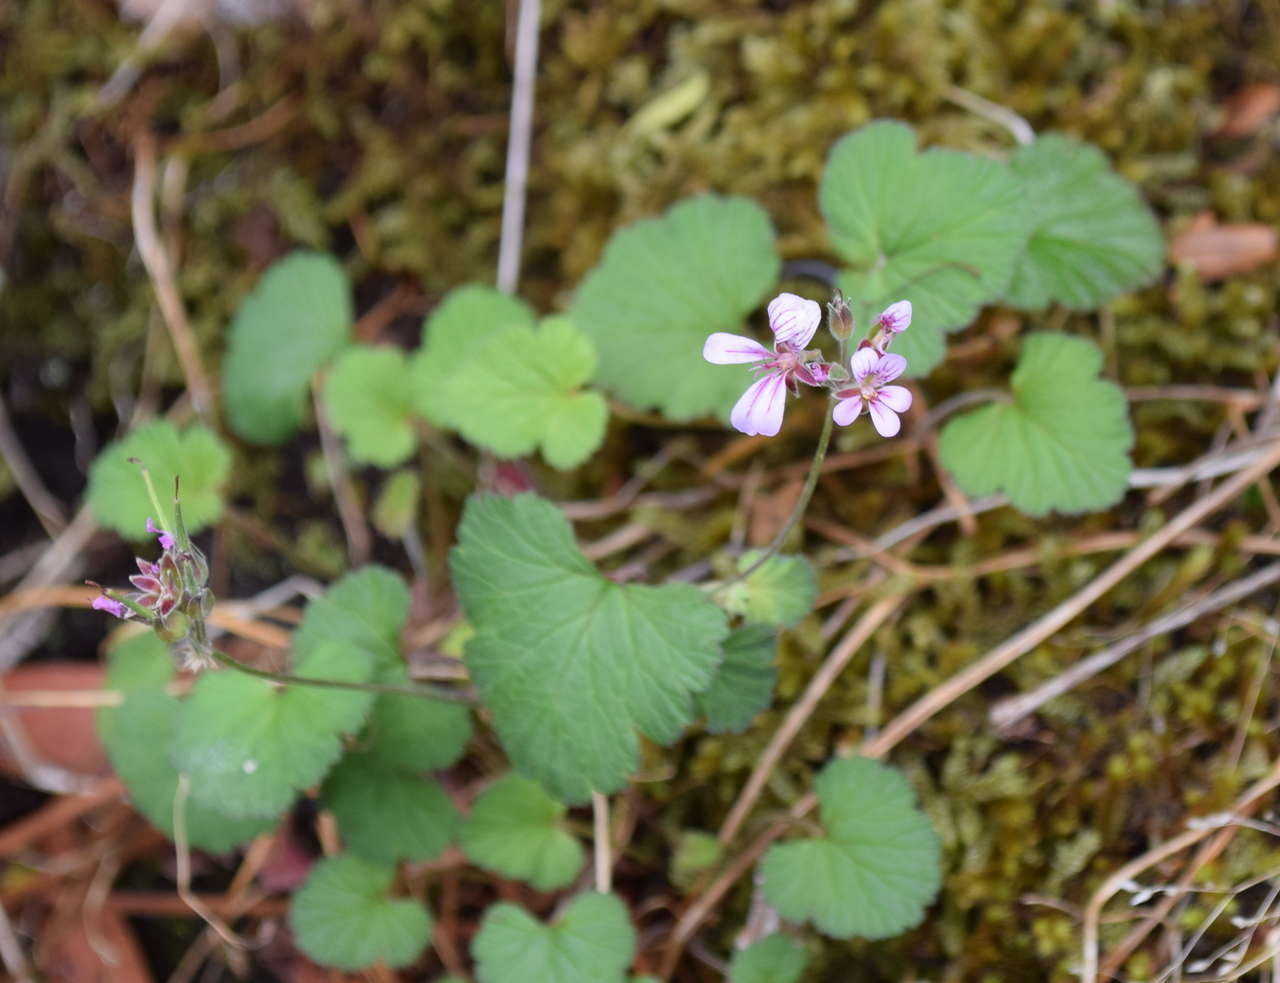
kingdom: Plantae
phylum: Tracheophyta
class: Magnoliopsida
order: Geraniales
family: Geraniaceae
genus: Pelargonium
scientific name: Pelargonium australe
